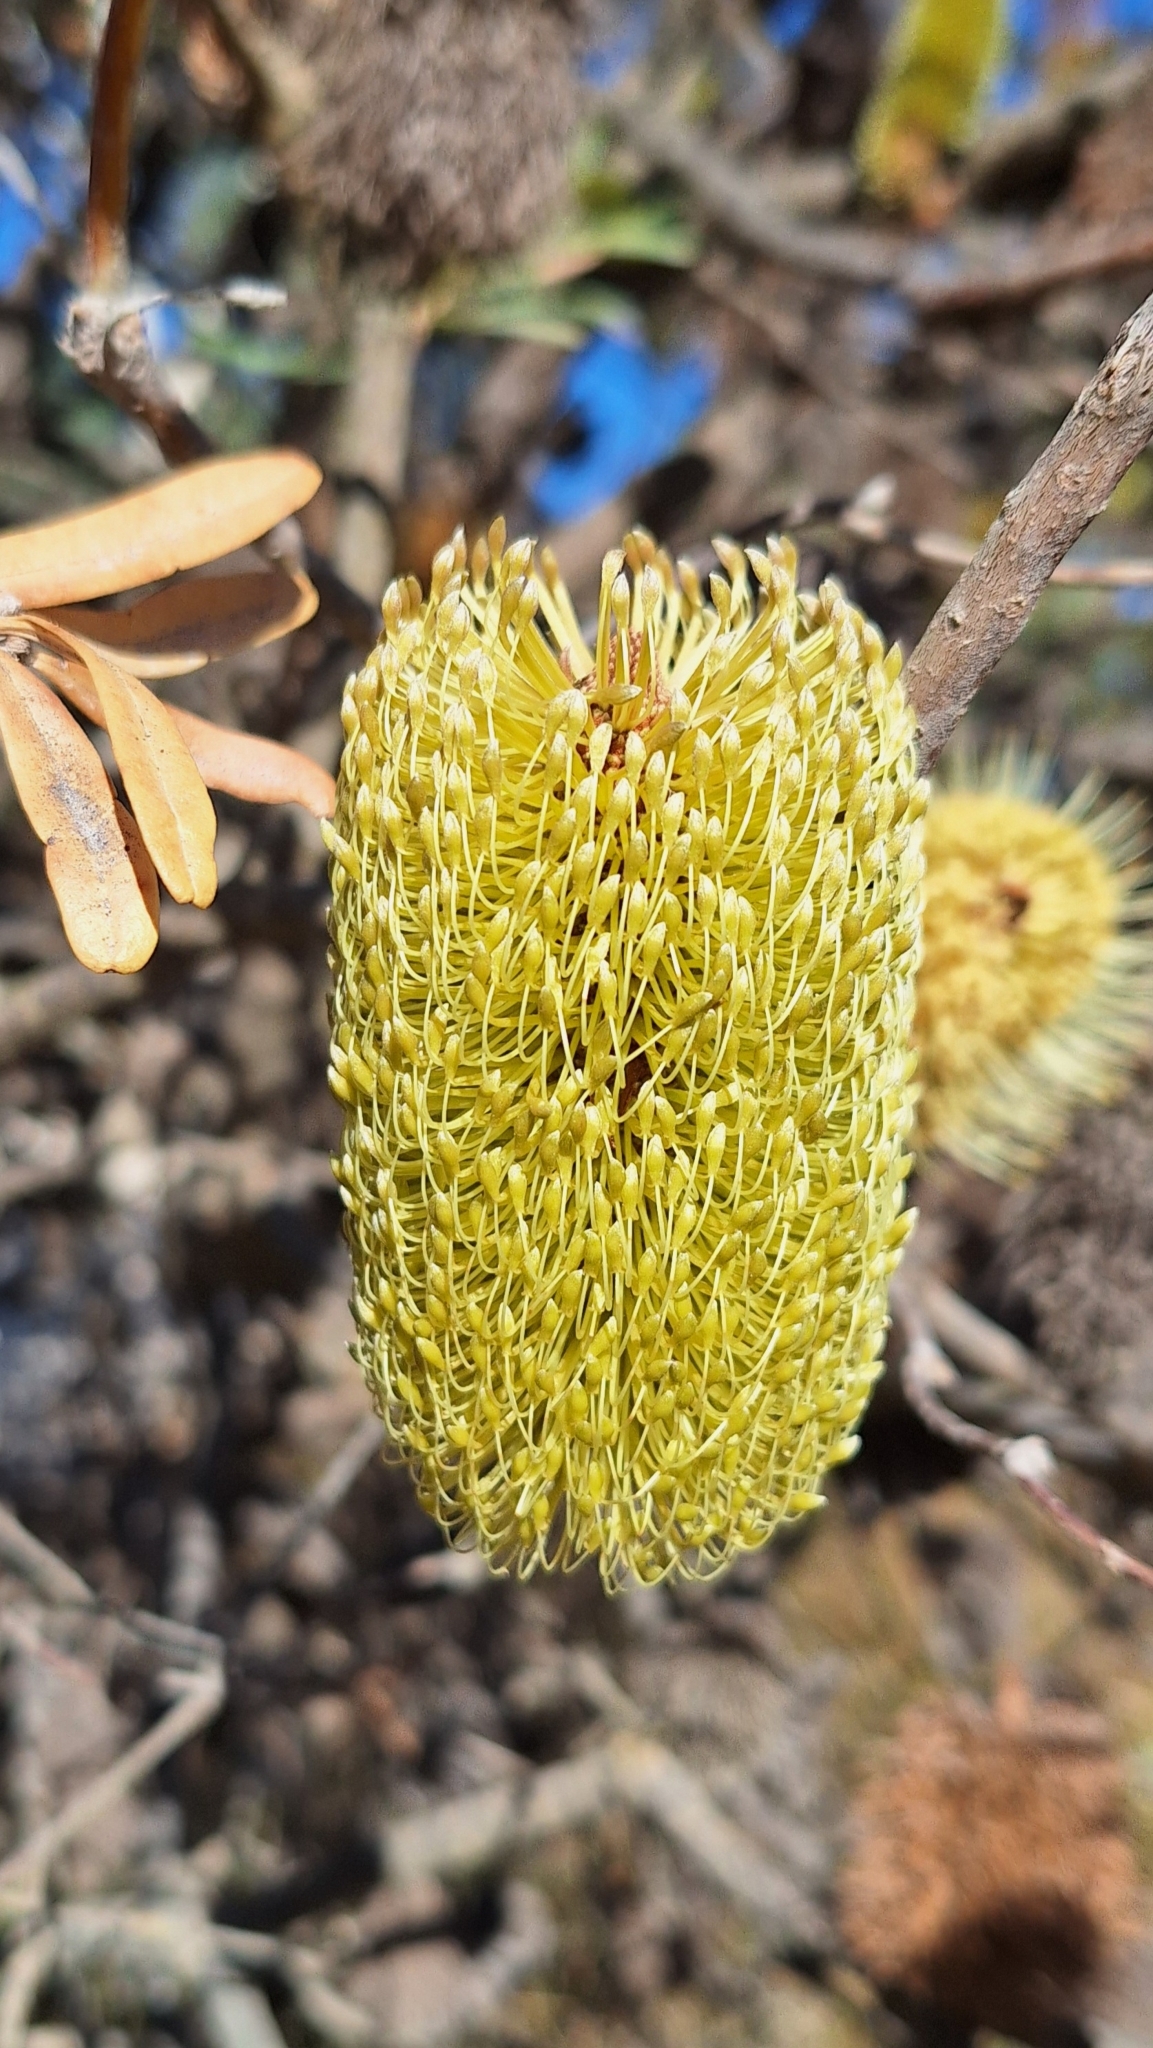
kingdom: Plantae
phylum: Tracheophyta
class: Magnoliopsida
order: Proteales
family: Proteaceae
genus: Banksia
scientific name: Banksia marginata
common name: Silver banksia
